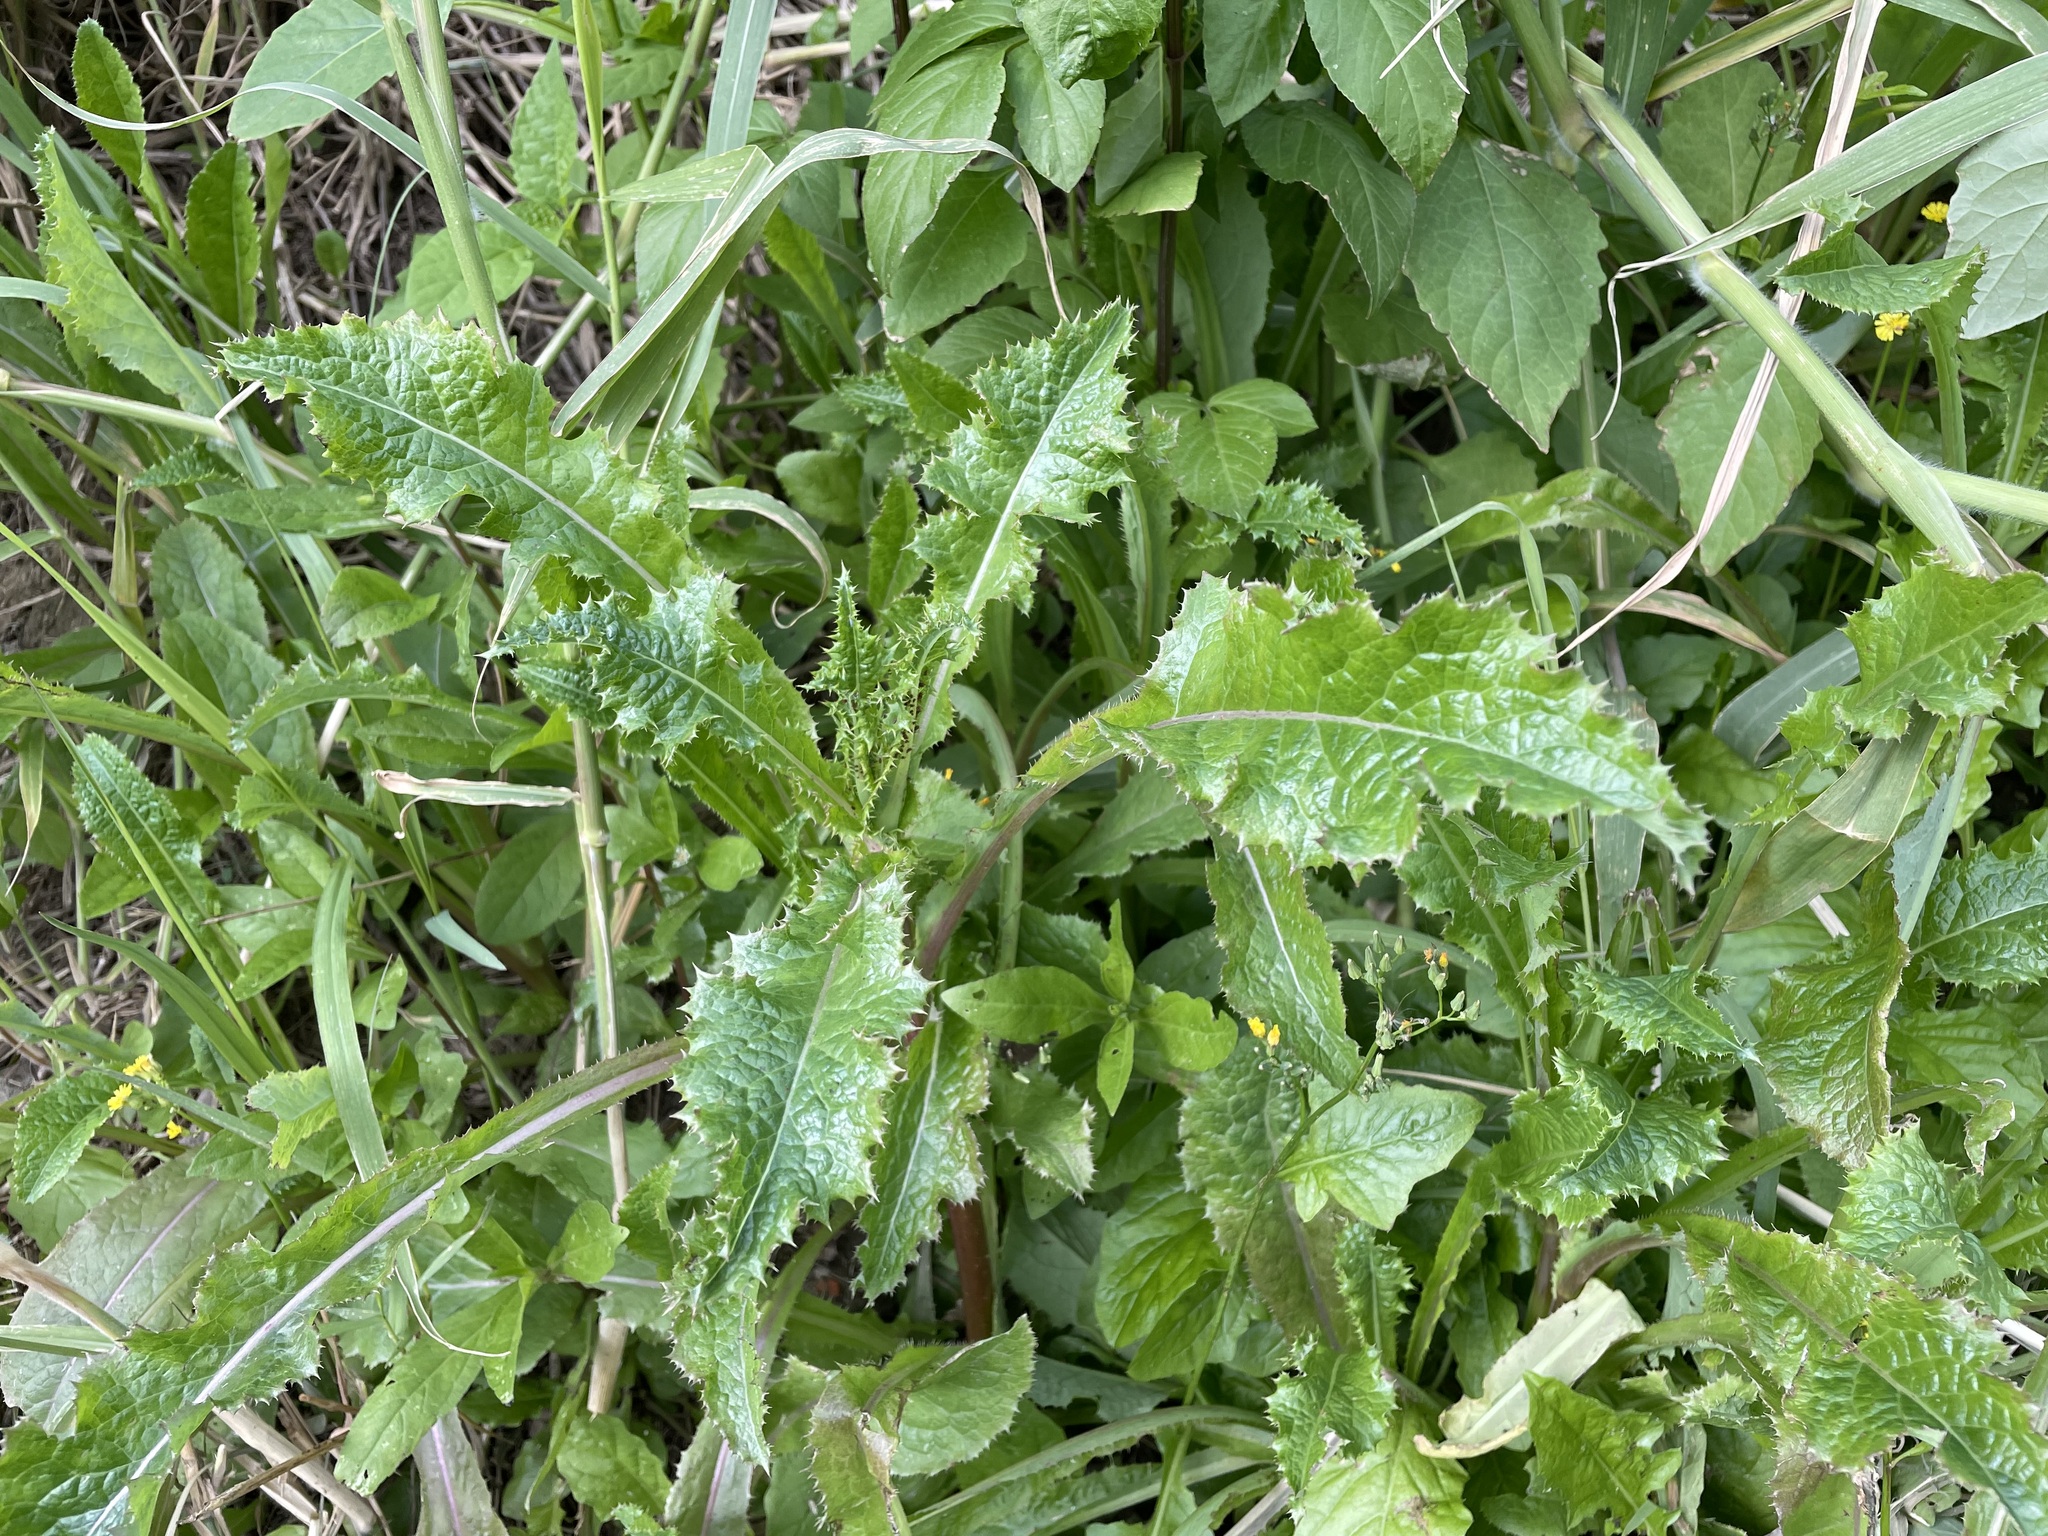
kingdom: Plantae
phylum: Tracheophyta
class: Magnoliopsida
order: Asterales
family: Asteraceae
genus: Sonchus
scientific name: Sonchus asper
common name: Prickly sow-thistle
